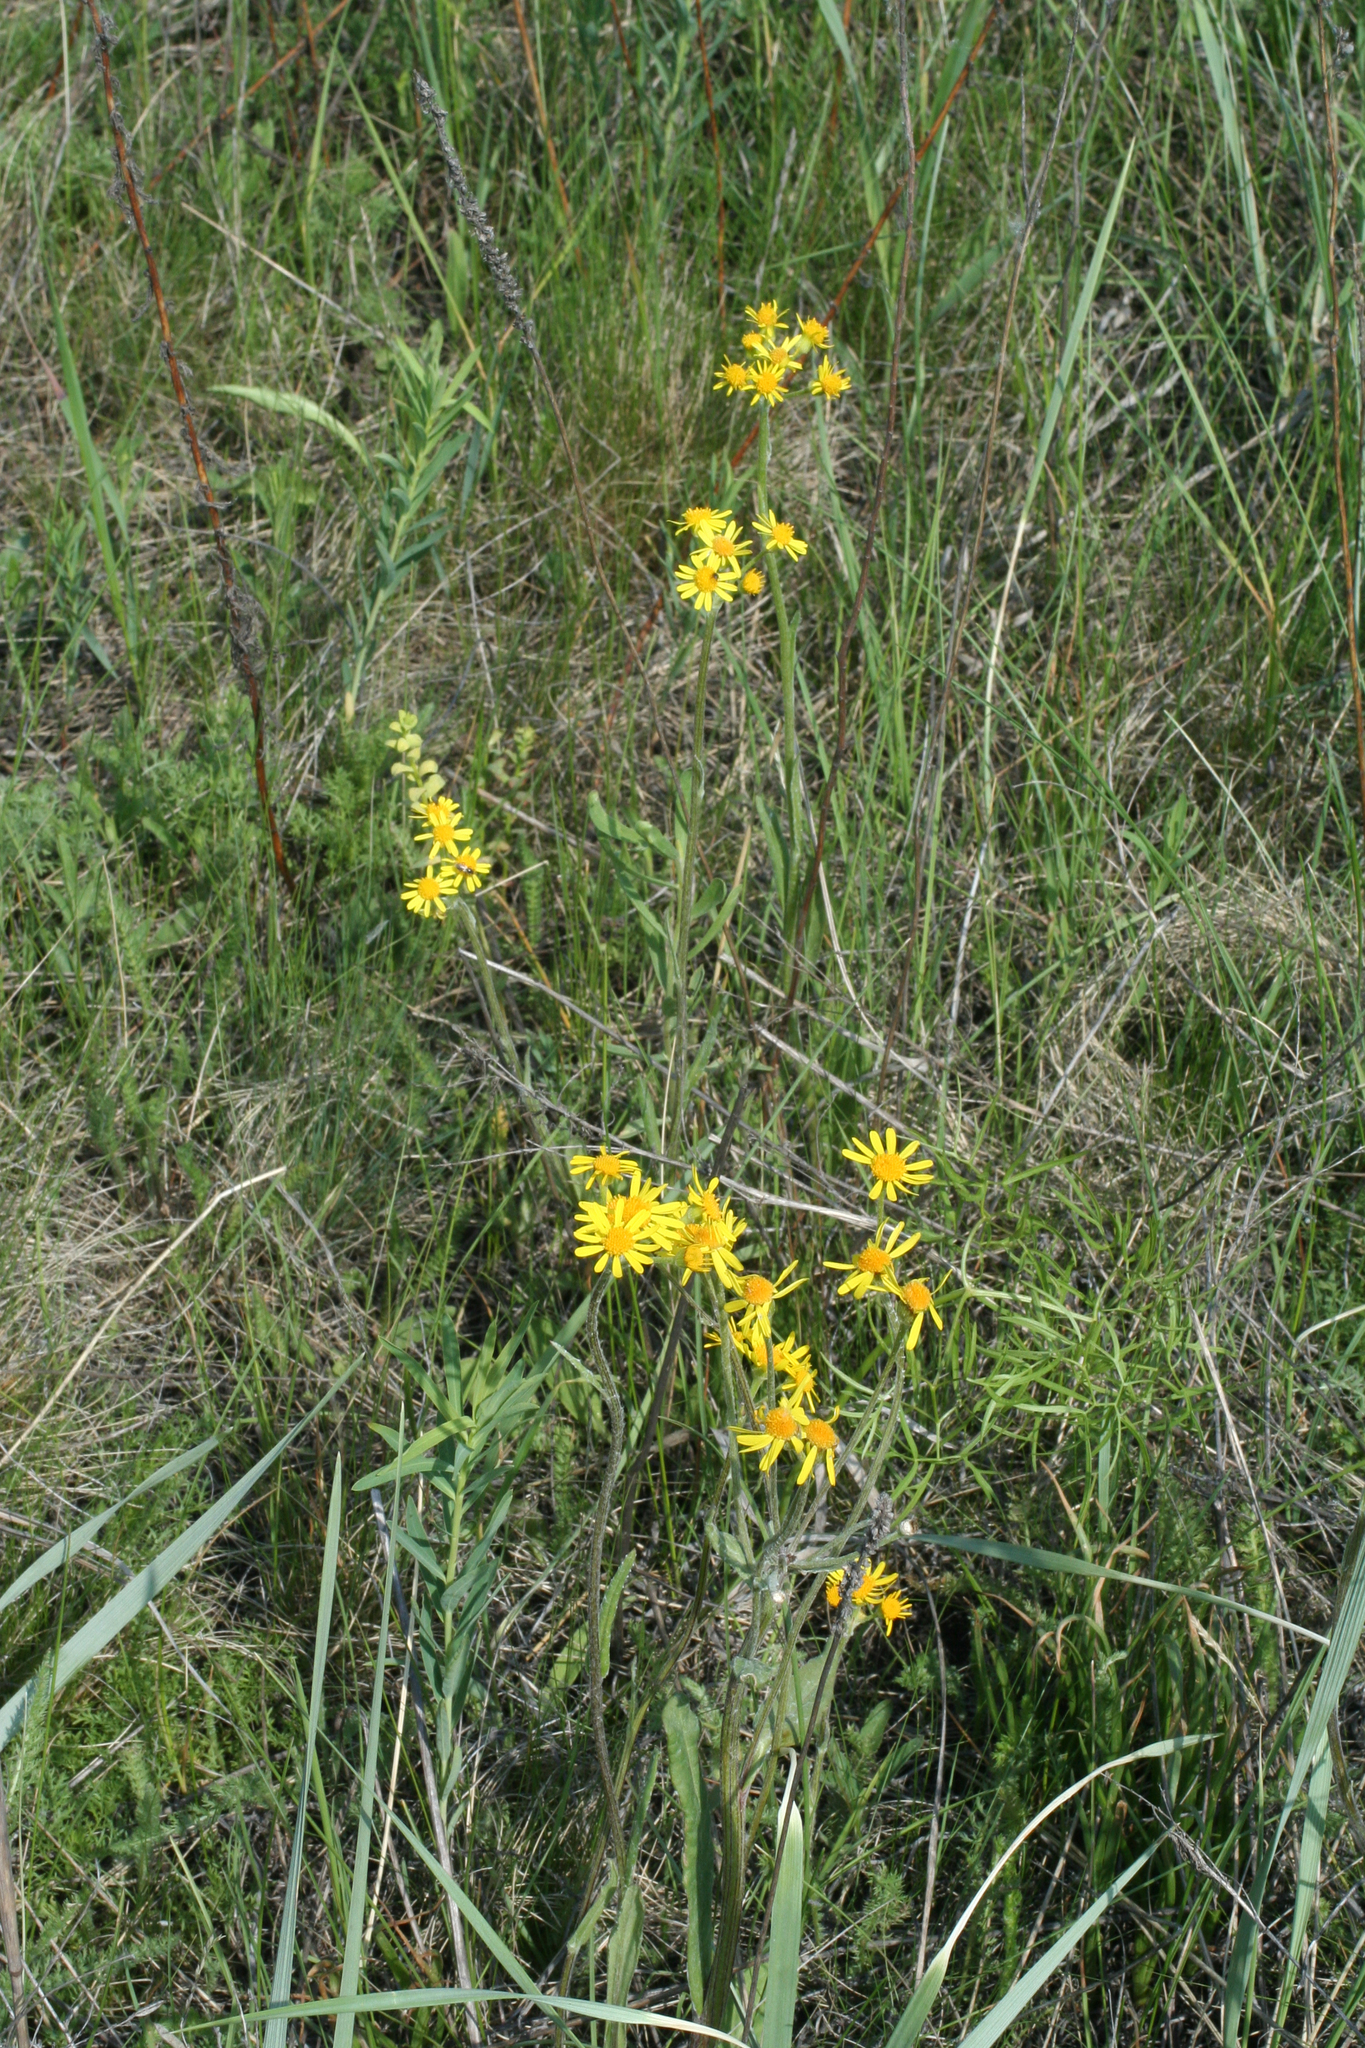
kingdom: Plantae
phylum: Tracheophyta
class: Magnoliopsida
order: Asterales
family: Asteraceae
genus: Tephroseris
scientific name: Tephroseris integrifolia
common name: Field fleawort
